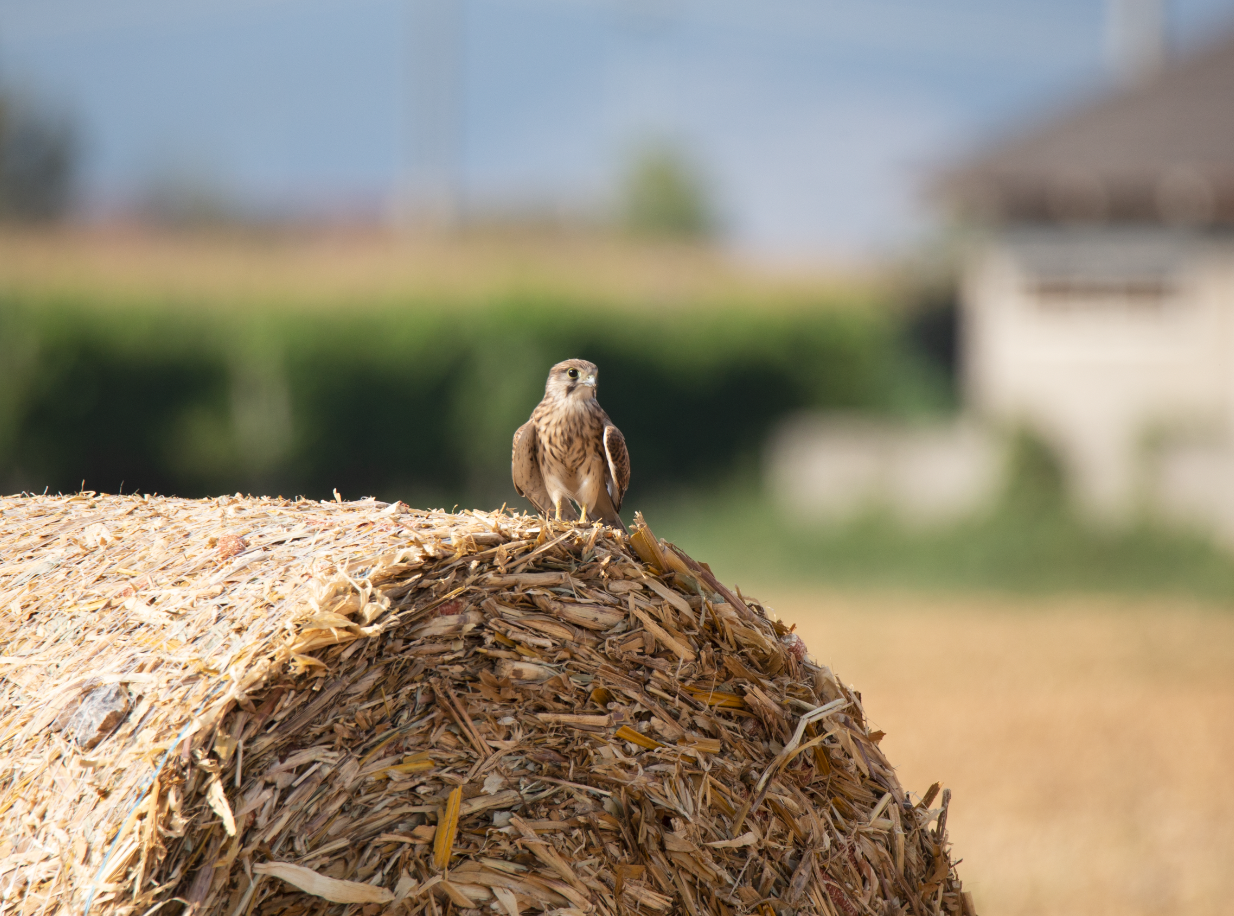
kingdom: Animalia
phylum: Chordata
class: Aves
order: Falconiformes
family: Falconidae
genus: Falco
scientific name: Falco tinnunculus
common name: Common kestrel
